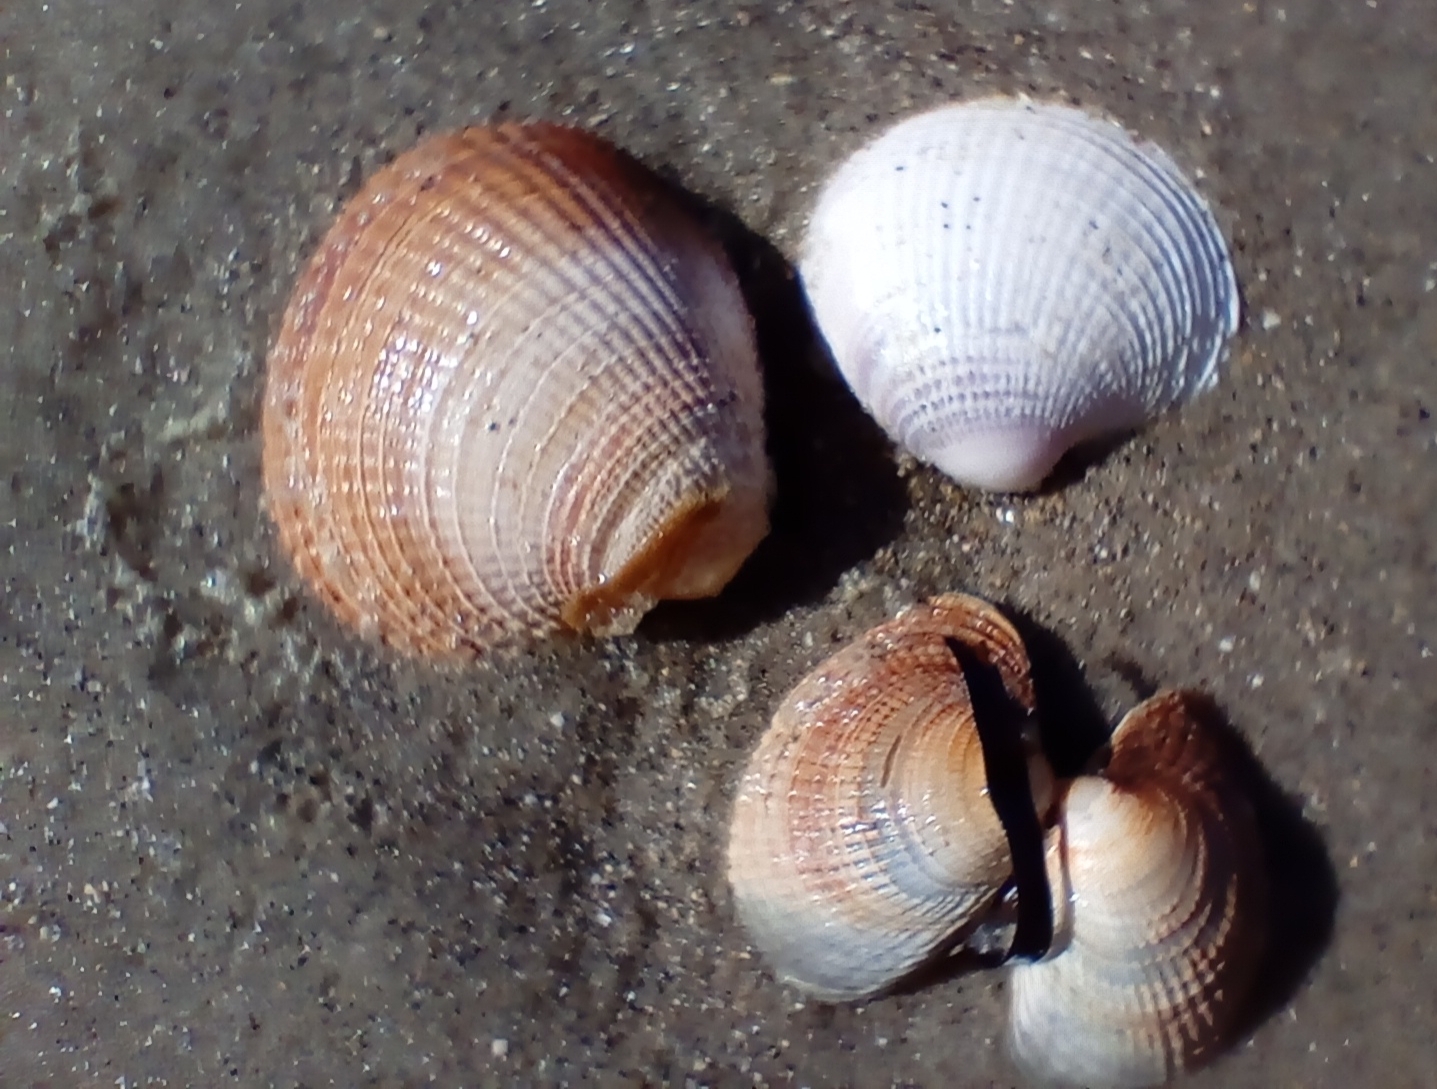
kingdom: Animalia
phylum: Mollusca
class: Bivalvia
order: Venerida
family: Veneridae
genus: Austrovenus
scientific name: Austrovenus stutchburyi
